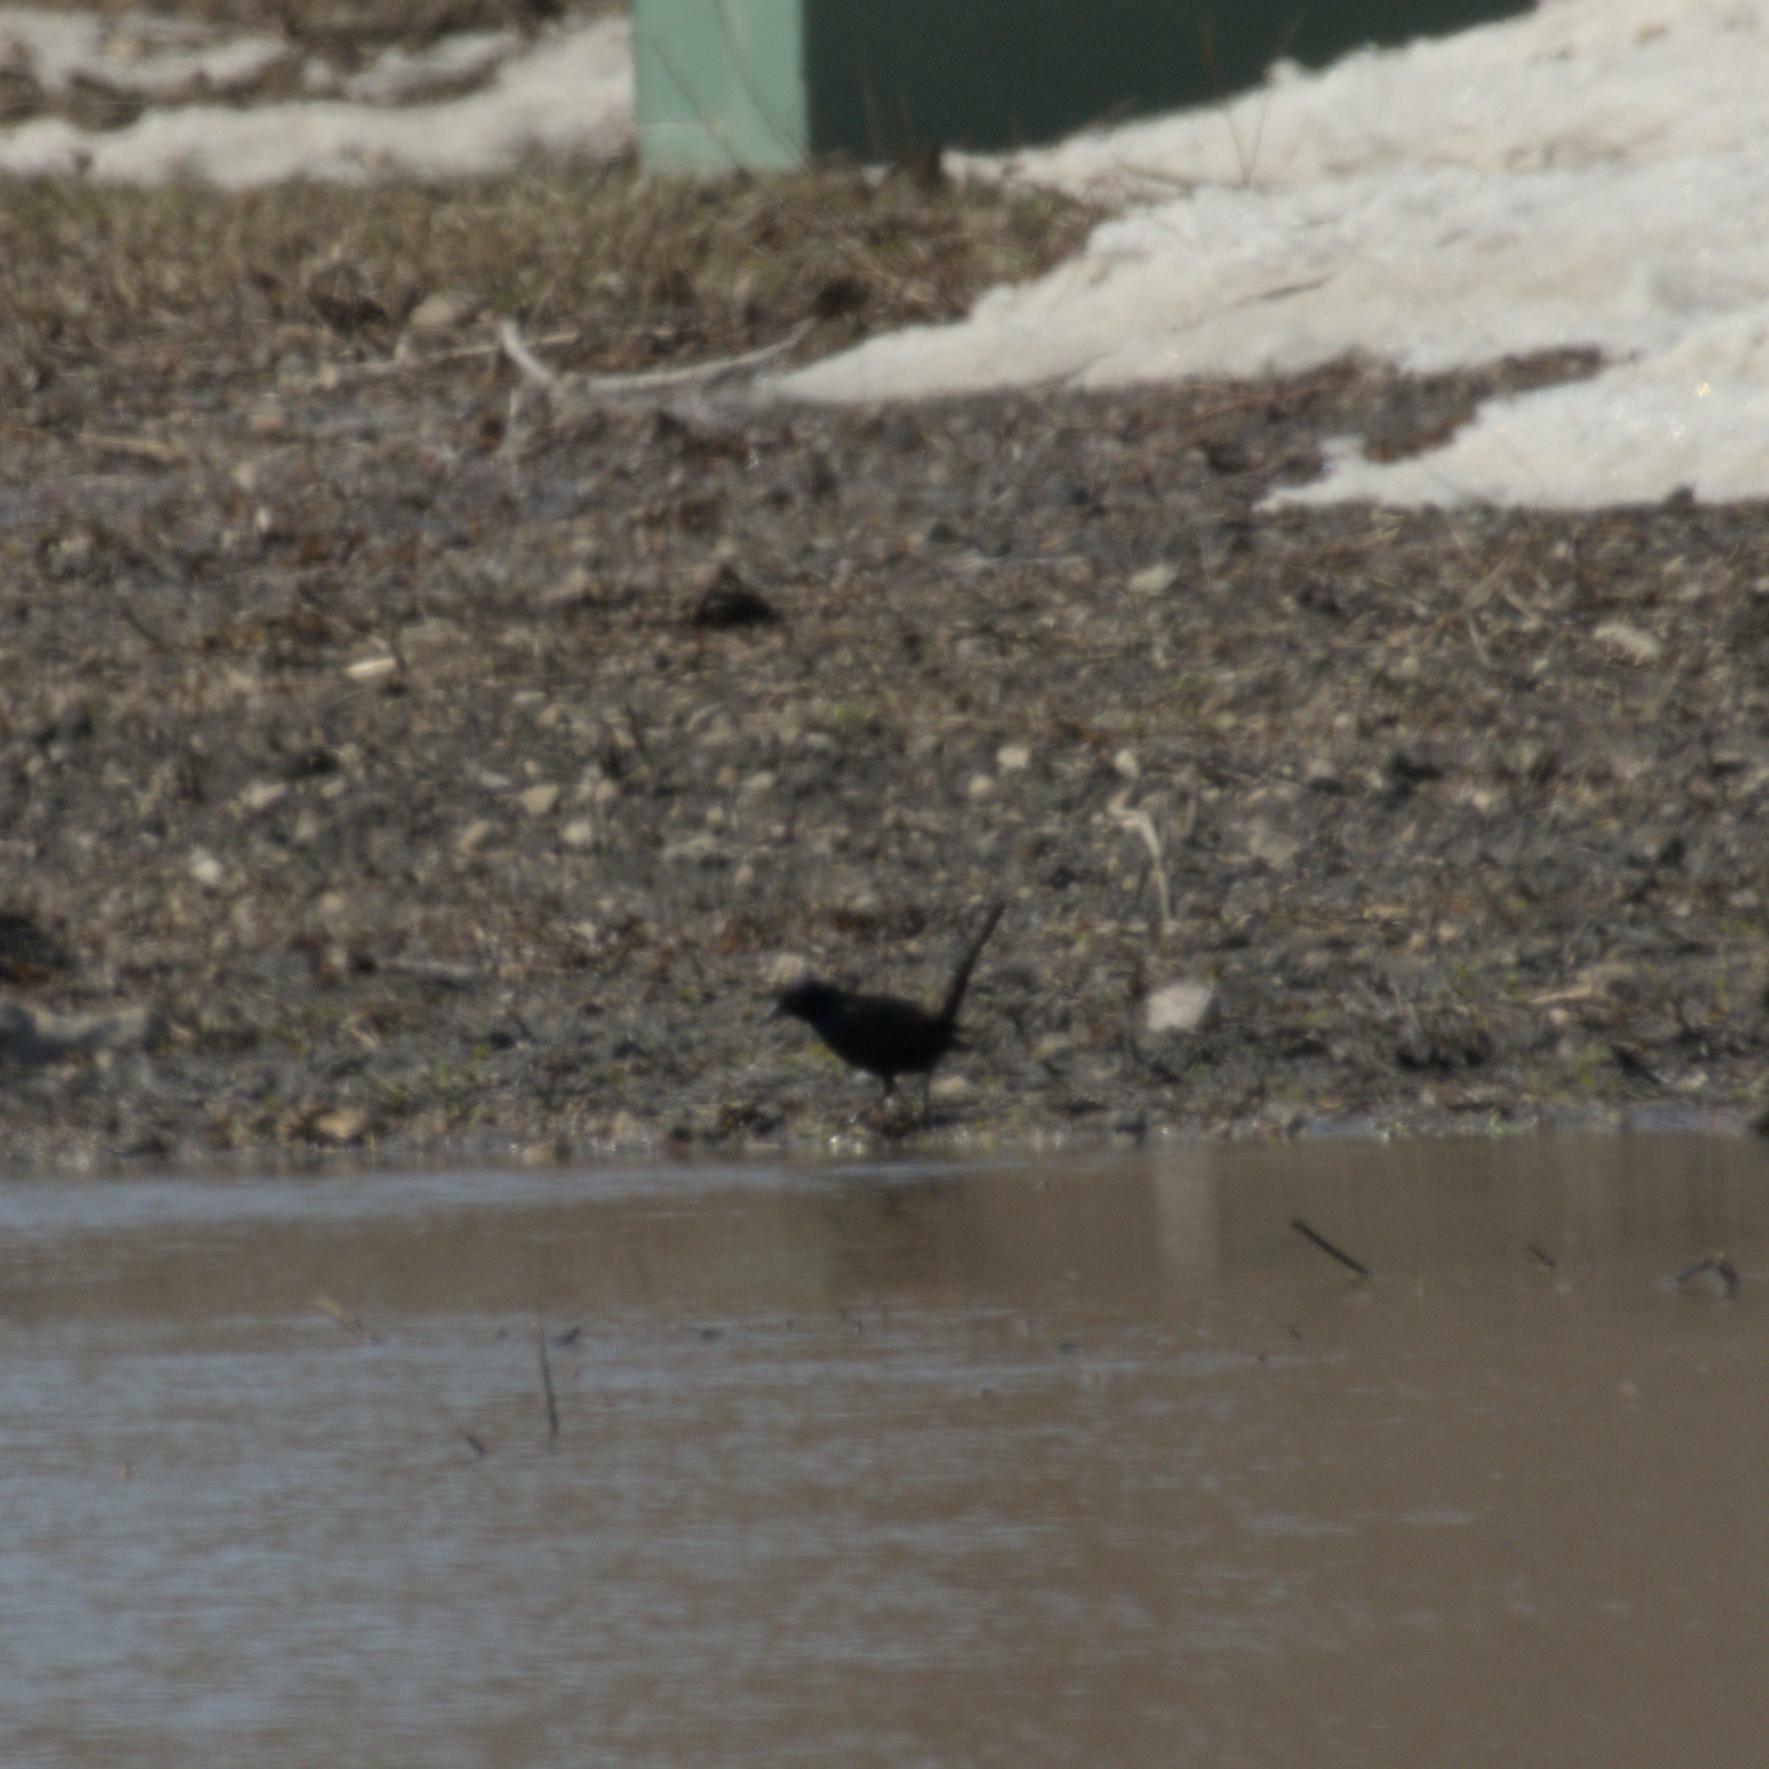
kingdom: Animalia
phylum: Chordata
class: Aves
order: Passeriformes
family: Icteridae
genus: Quiscalus
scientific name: Quiscalus quiscula
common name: Common grackle
